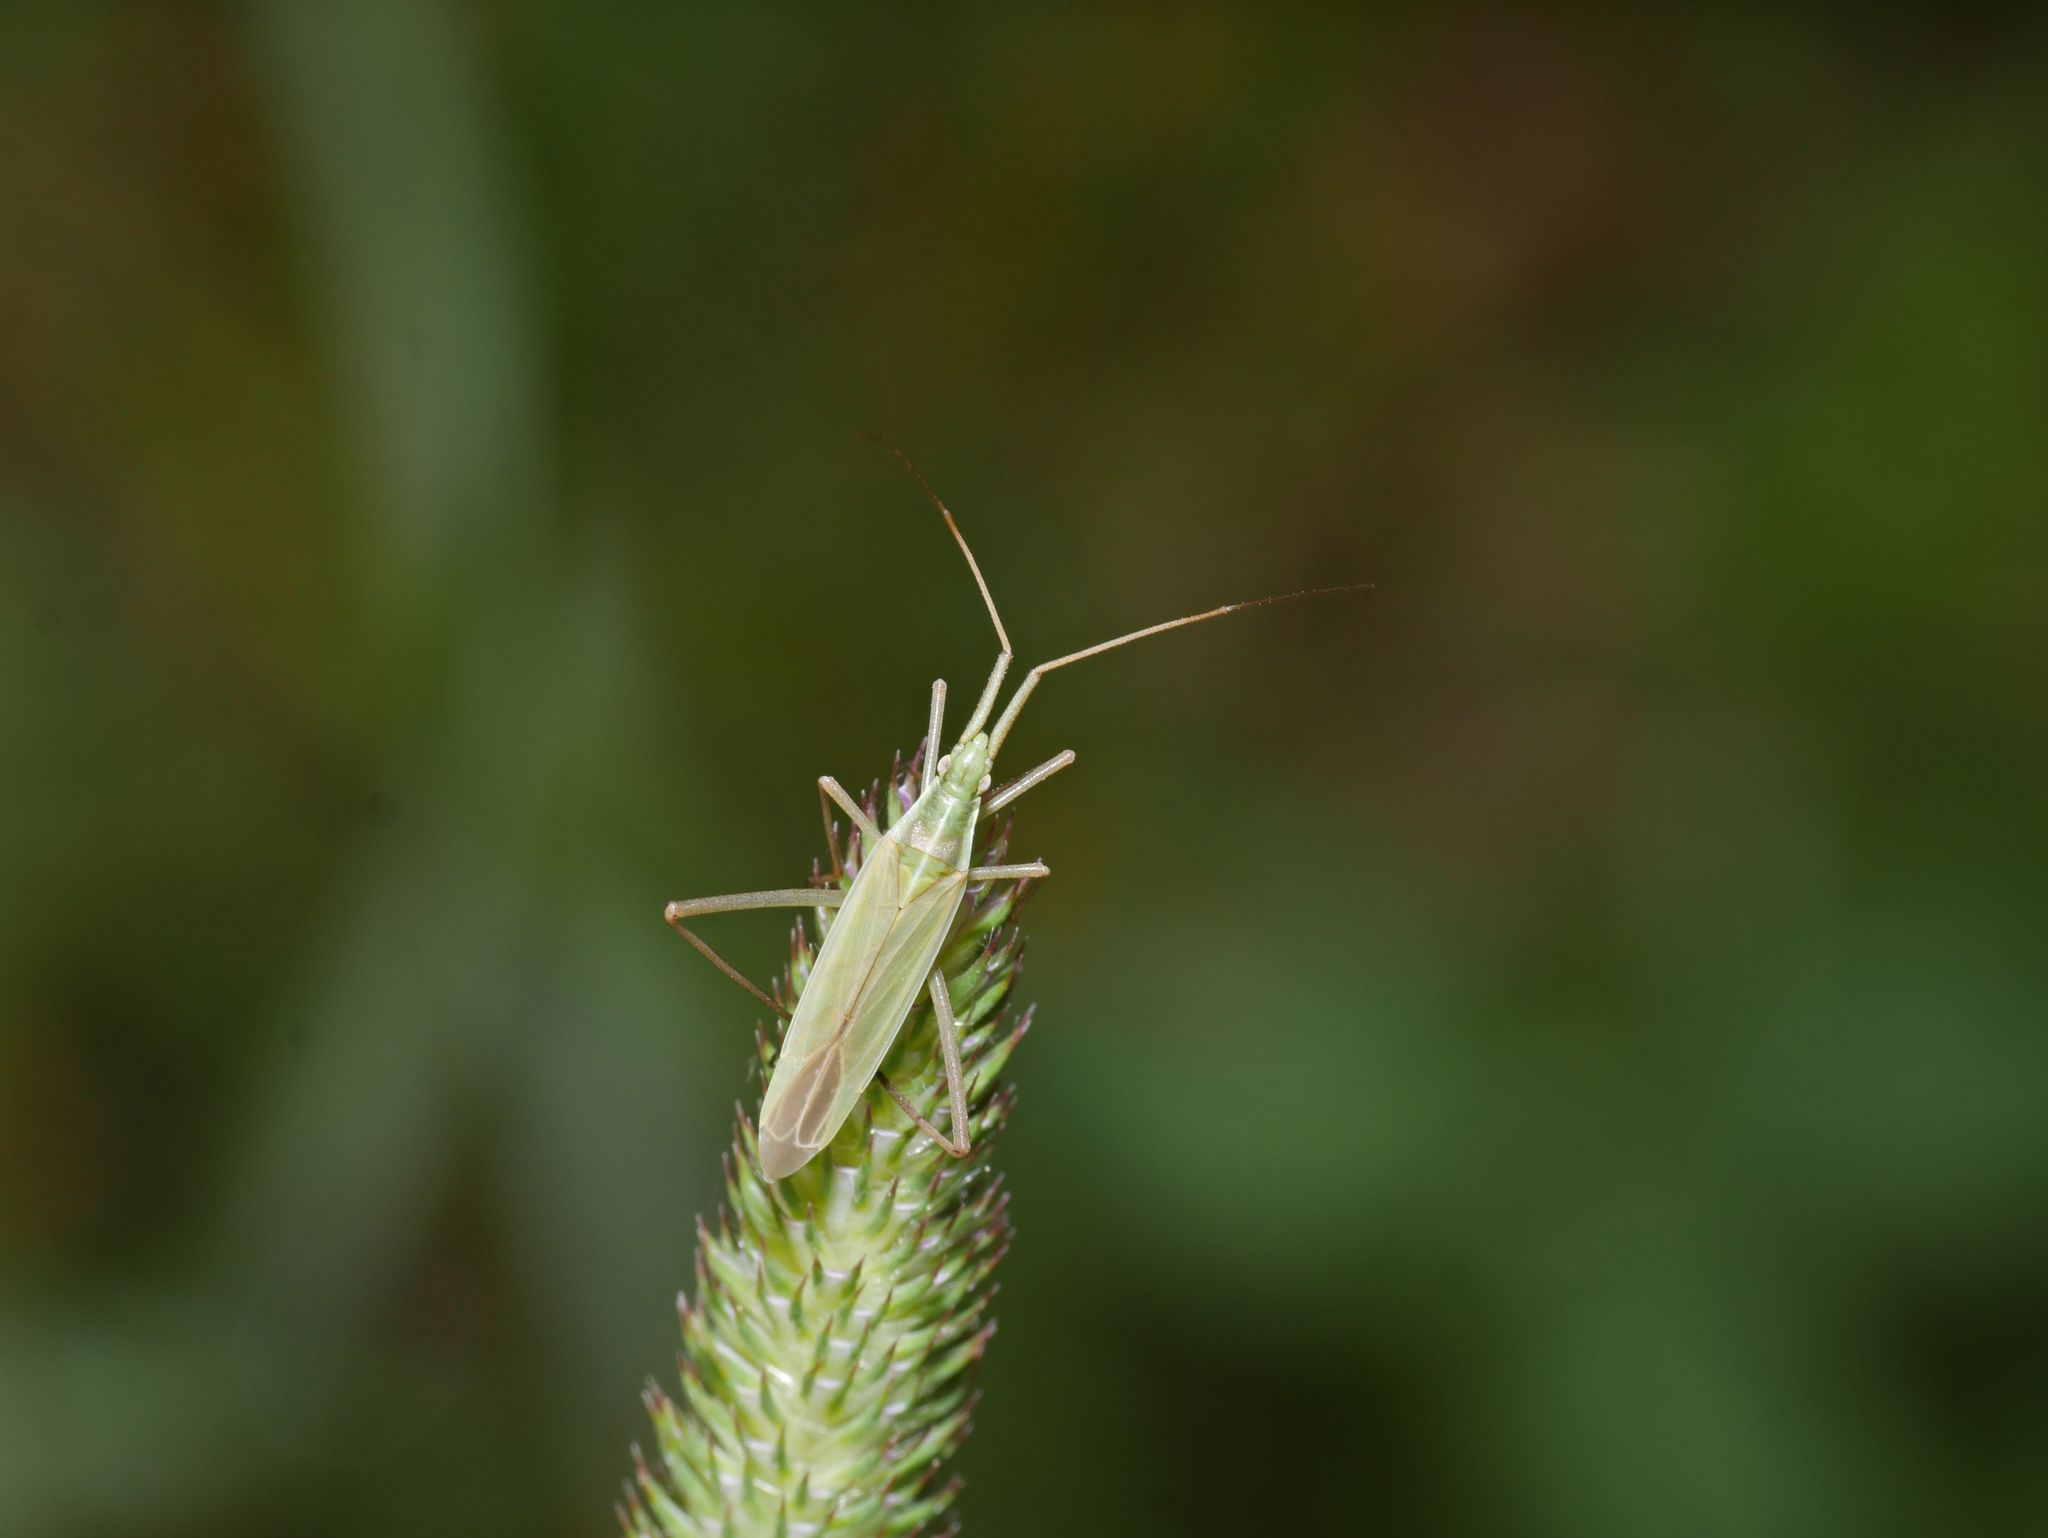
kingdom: Animalia
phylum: Arthropoda
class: Insecta
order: Hemiptera
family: Miridae
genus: Megaloceroea
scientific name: Megaloceroea recticornis
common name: Plant bug
